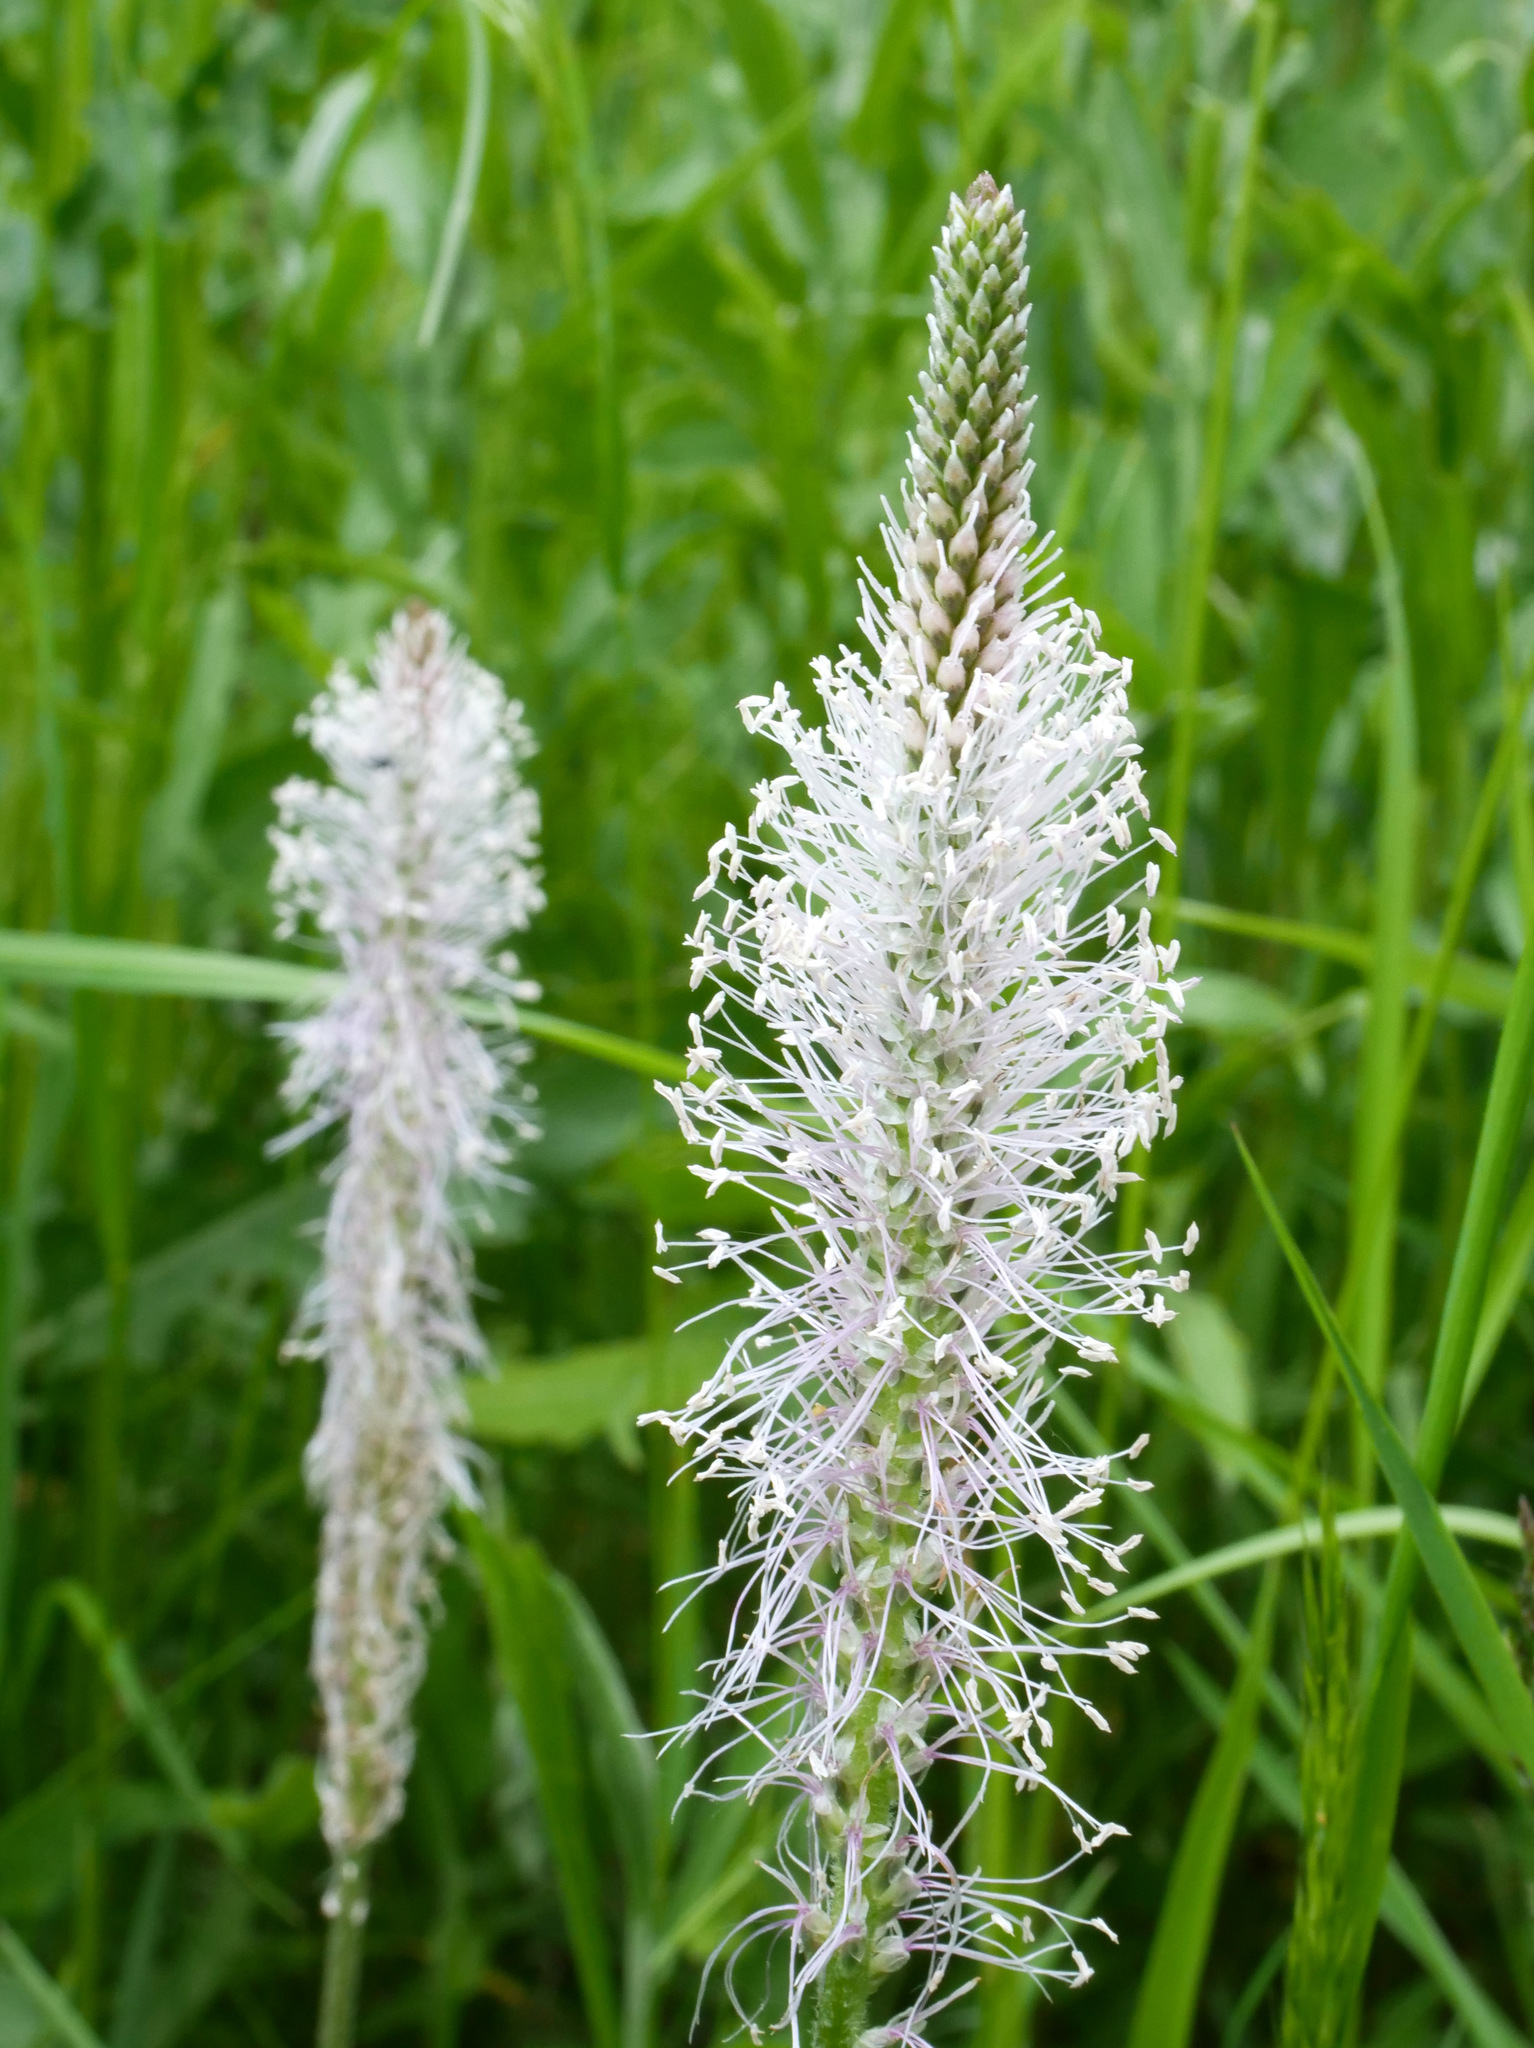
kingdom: Plantae
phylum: Tracheophyta
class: Magnoliopsida
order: Lamiales
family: Plantaginaceae
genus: Plantago
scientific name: Plantago media
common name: Hoary plantain
